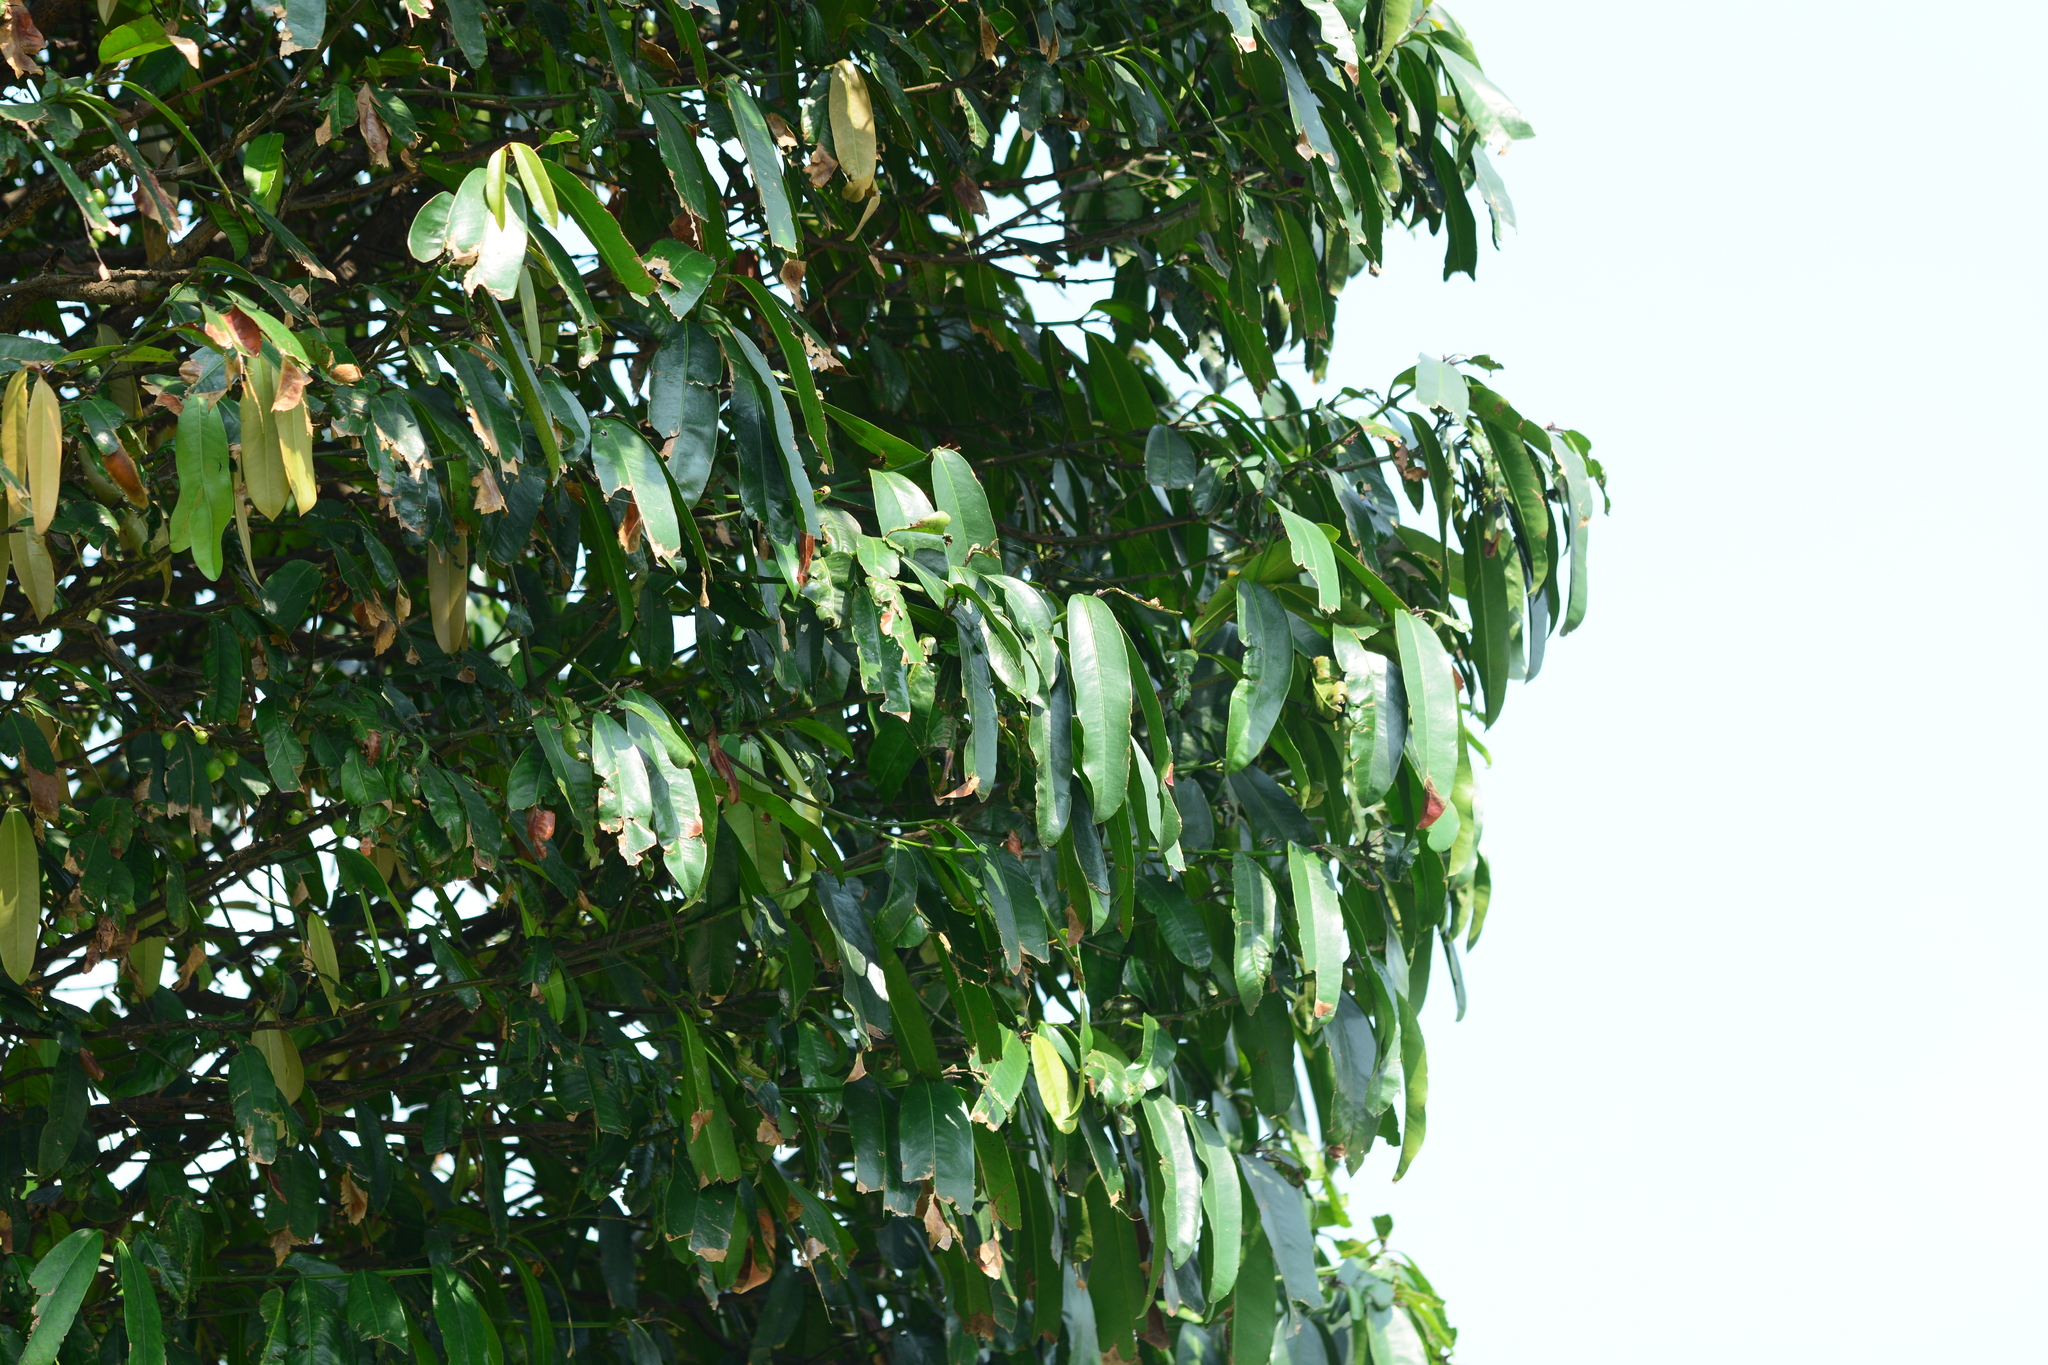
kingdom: Plantae
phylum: Tracheophyta
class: Magnoliopsida
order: Malpighiales
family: Clusiaceae
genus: Garcinia
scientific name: Garcinia xanthochymus
